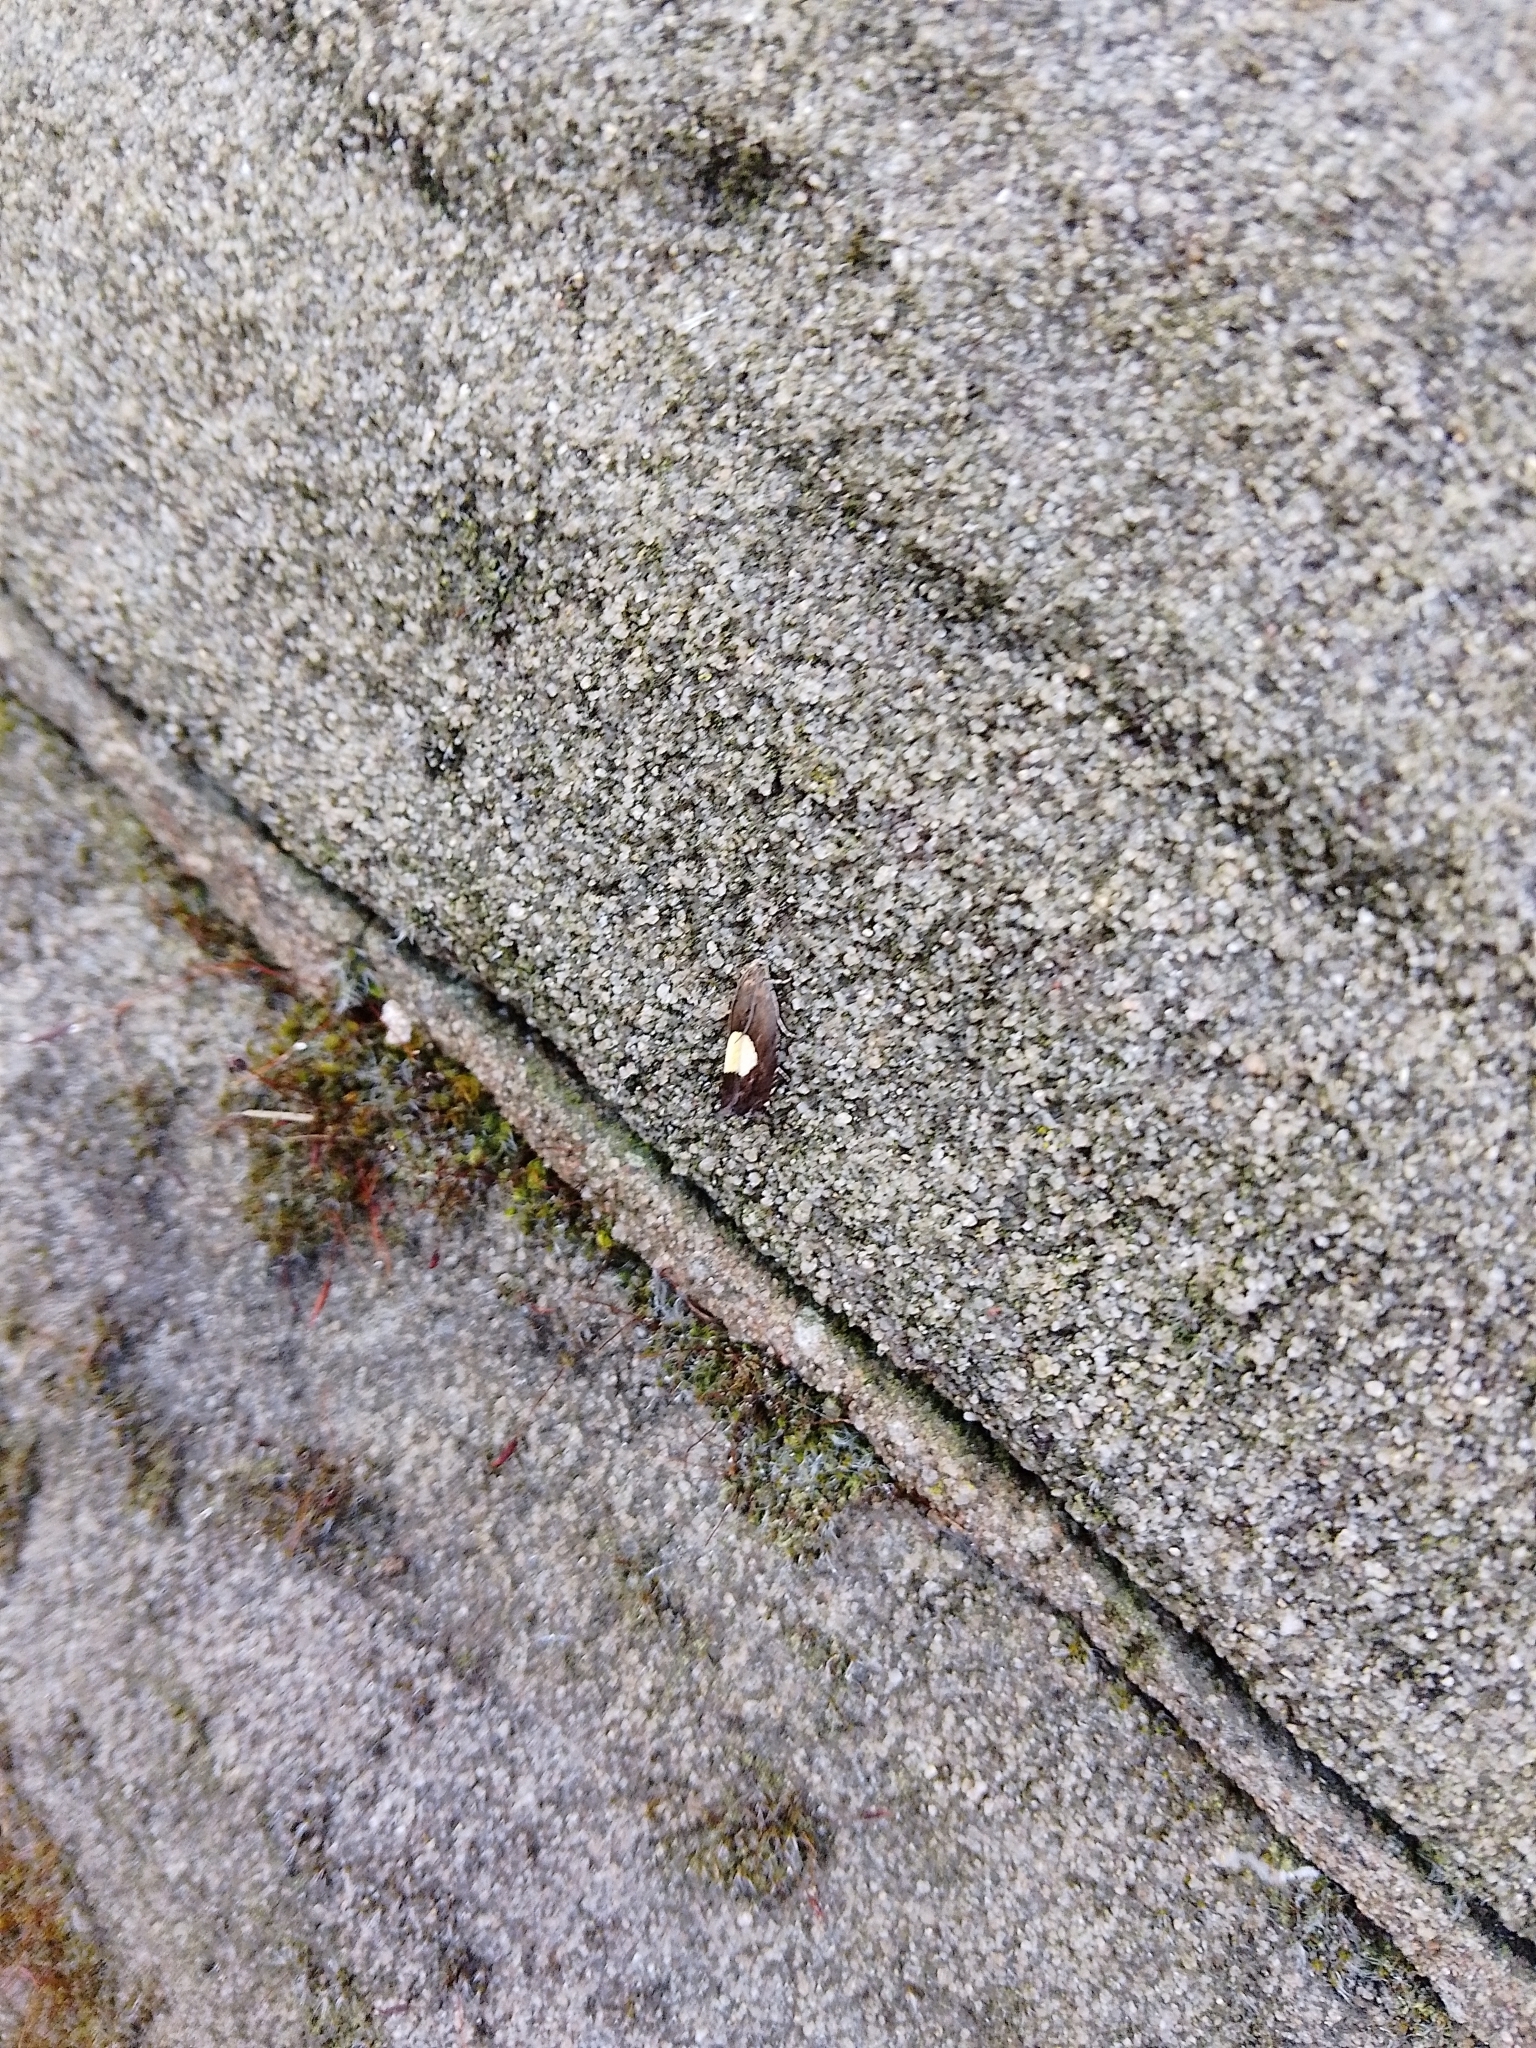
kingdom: Animalia
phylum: Arthropoda
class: Insecta
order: Lepidoptera
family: Tortricidae
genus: Pammene
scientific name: Pammene regiana
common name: Regal piercer
